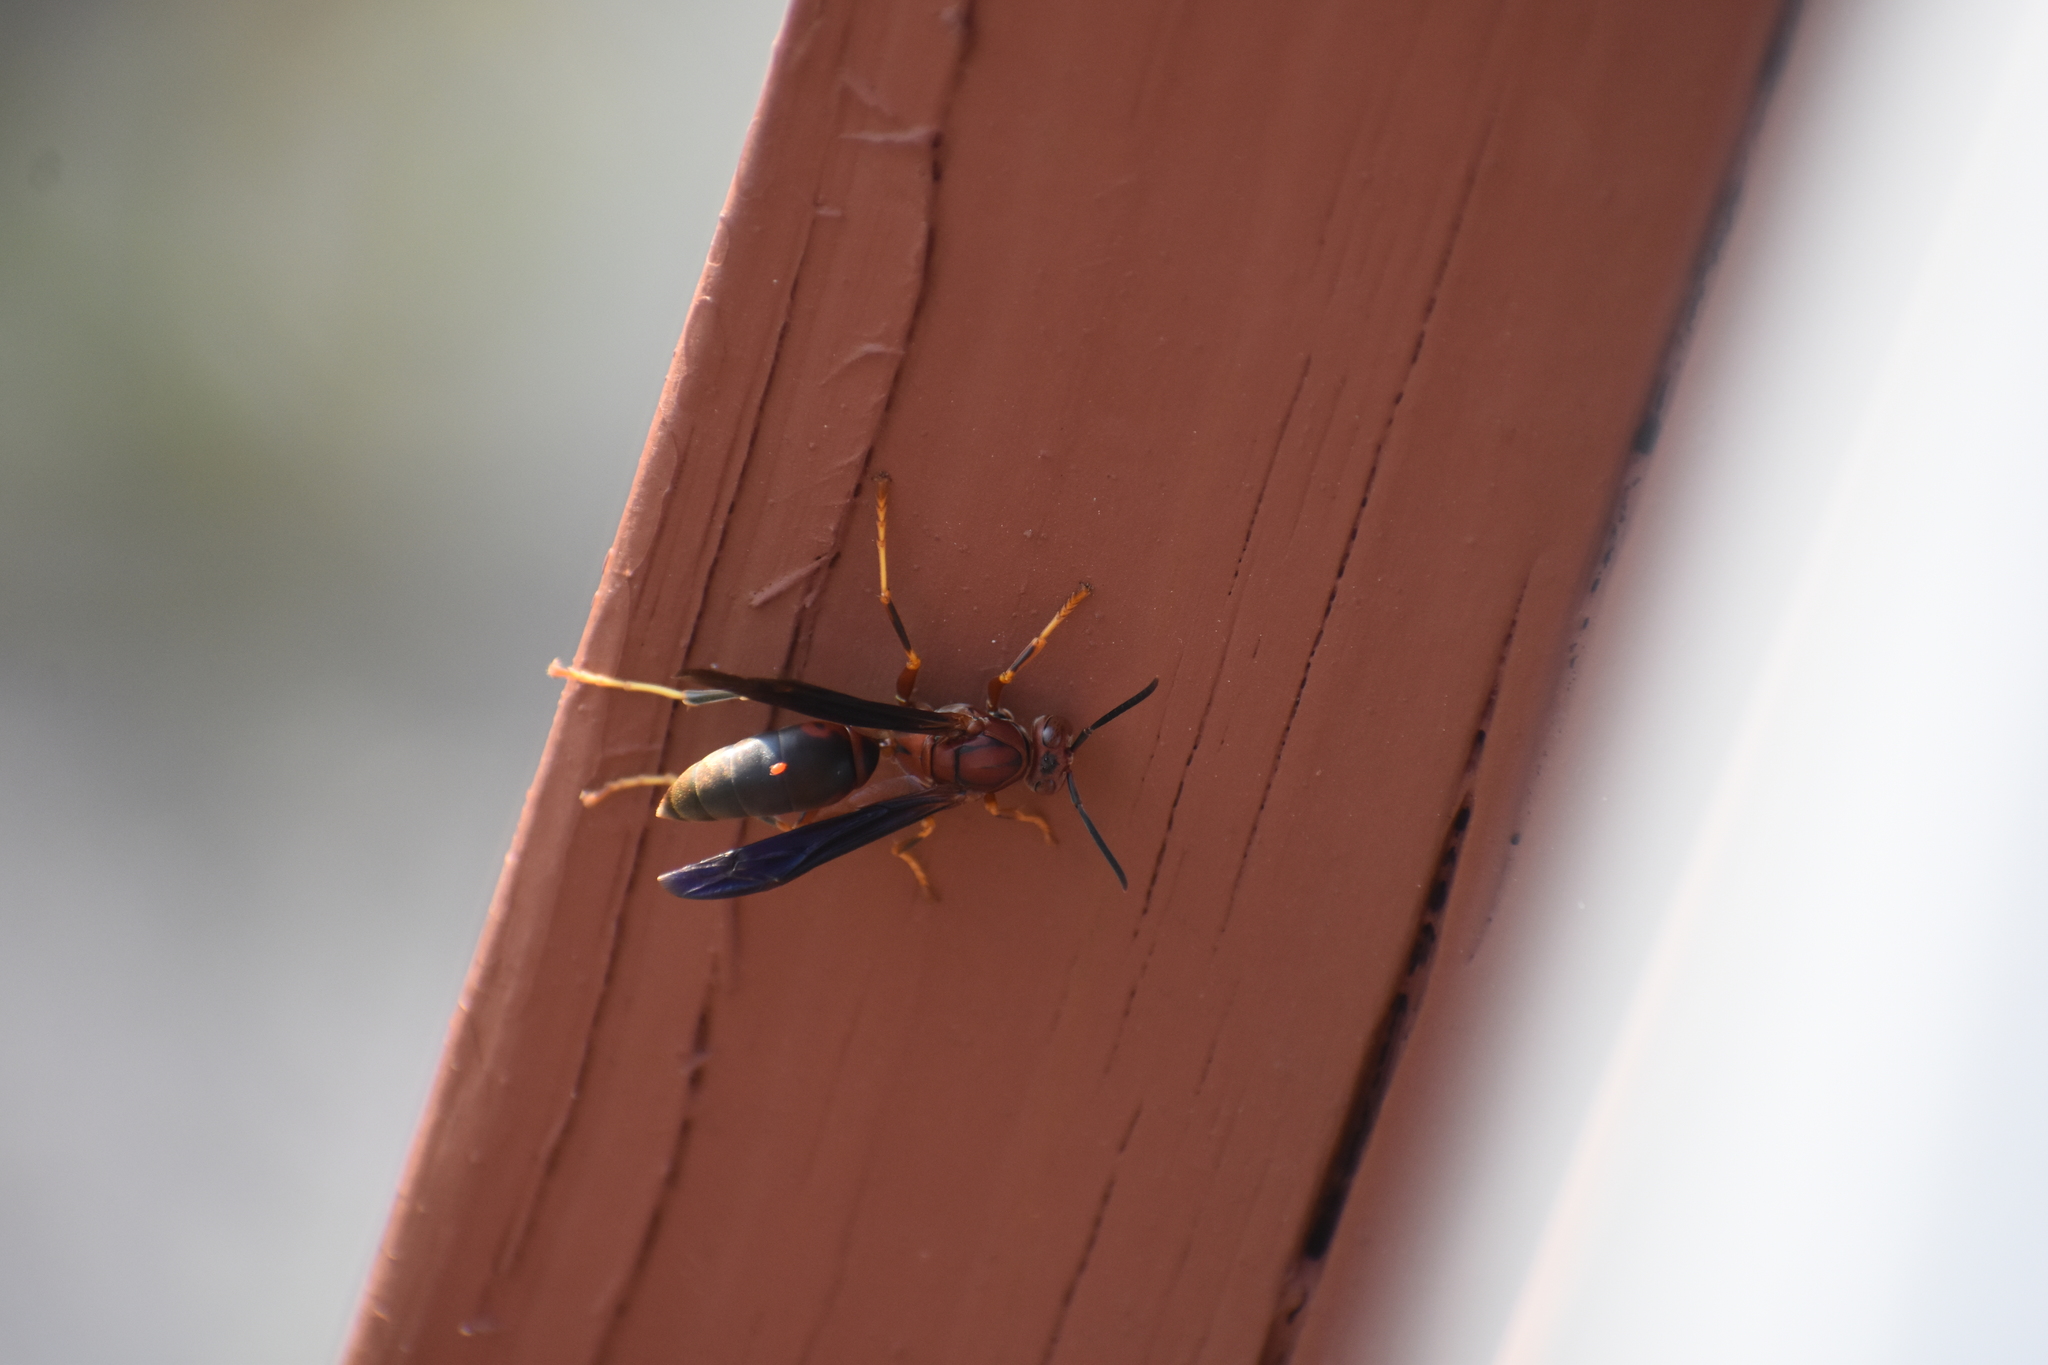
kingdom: Animalia
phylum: Arthropoda
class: Insecta
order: Hymenoptera
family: Eumenidae
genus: Polistes
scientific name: Polistes metricus
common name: Metric paper wasp
